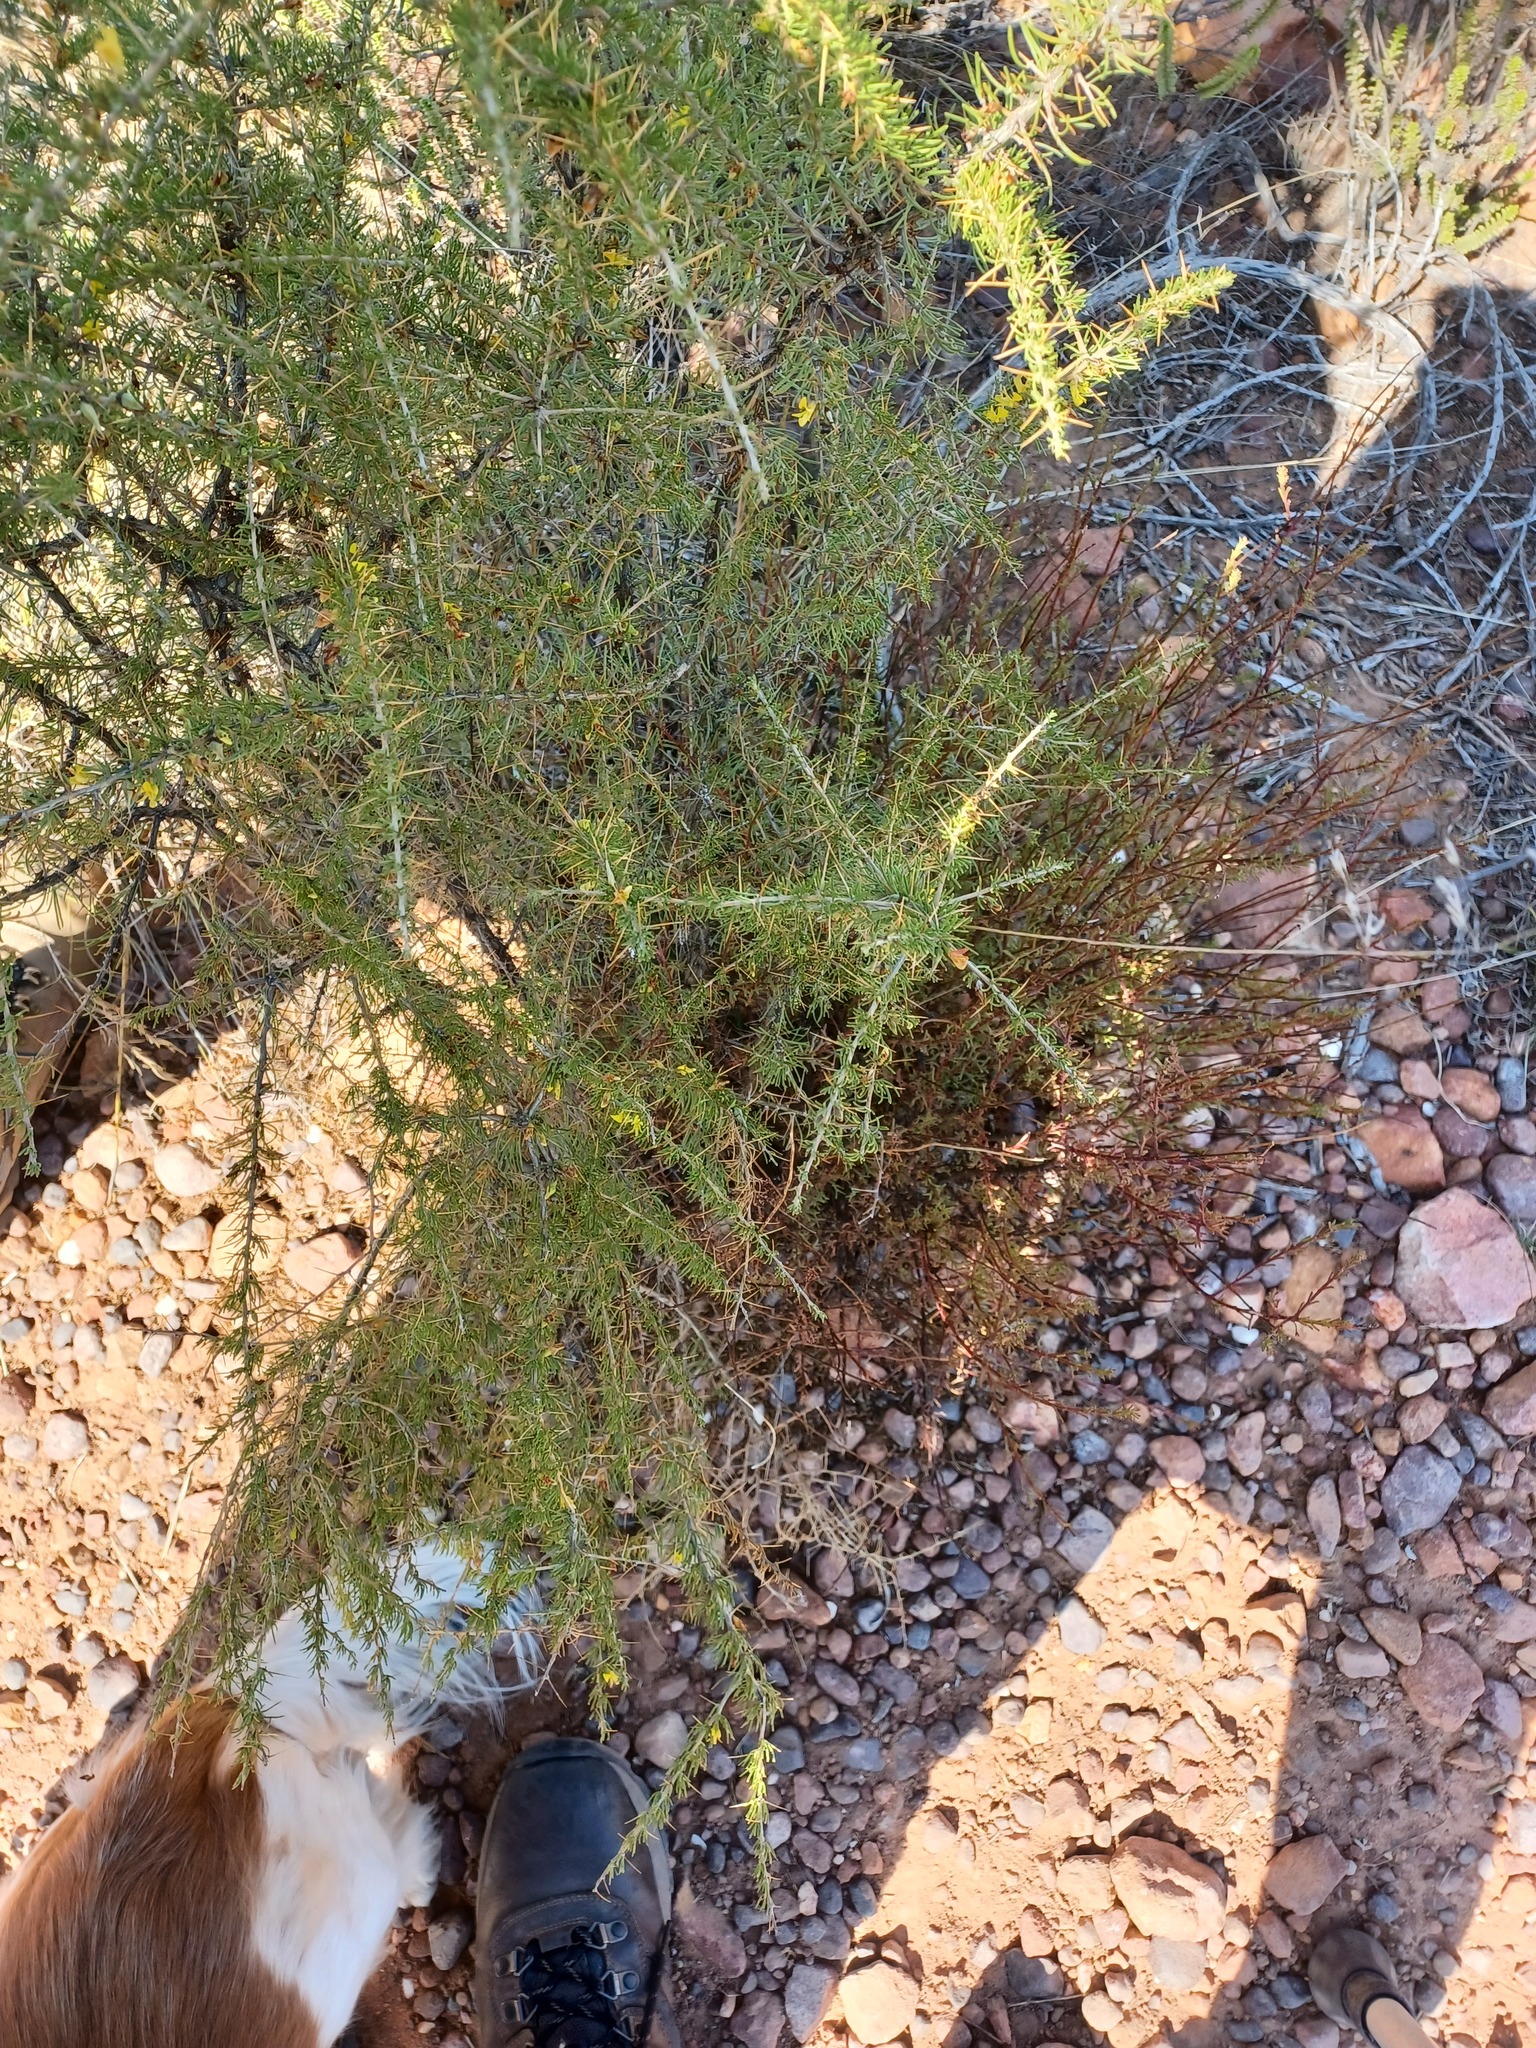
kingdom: Plantae
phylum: Tracheophyta
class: Magnoliopsida
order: Fabales
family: Fabaceae
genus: Aspalathus
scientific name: Aspalathus spinosa
